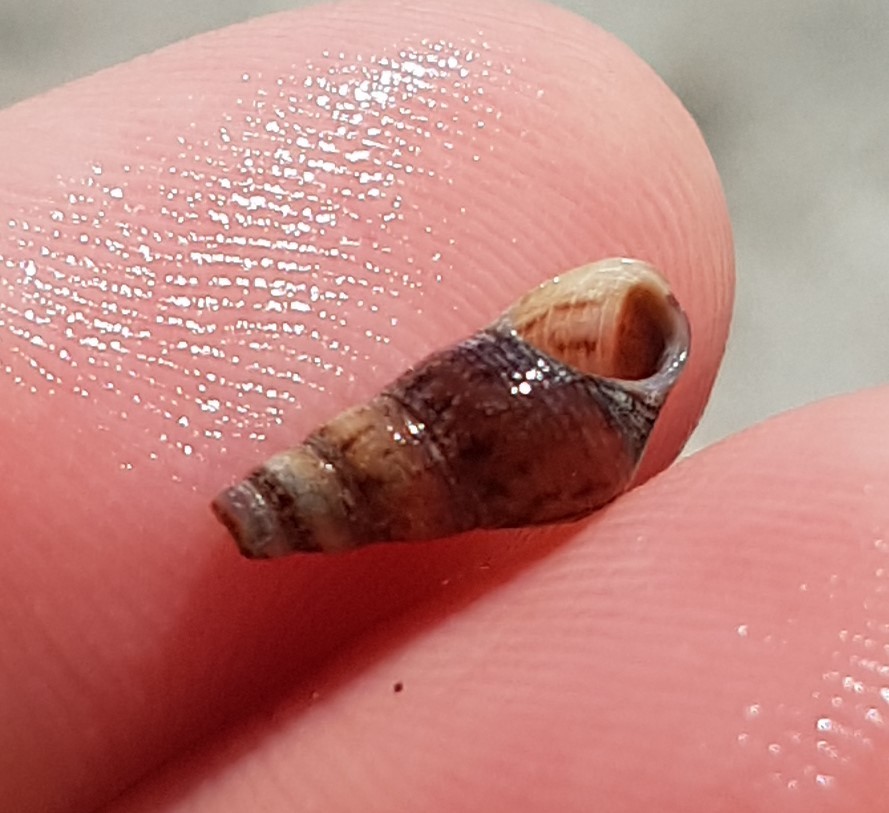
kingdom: Animalia
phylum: Mollusca
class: Gastropoda
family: Thiaridae
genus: Melanoides
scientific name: Melanoides tuberculata
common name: Red-rim melania
